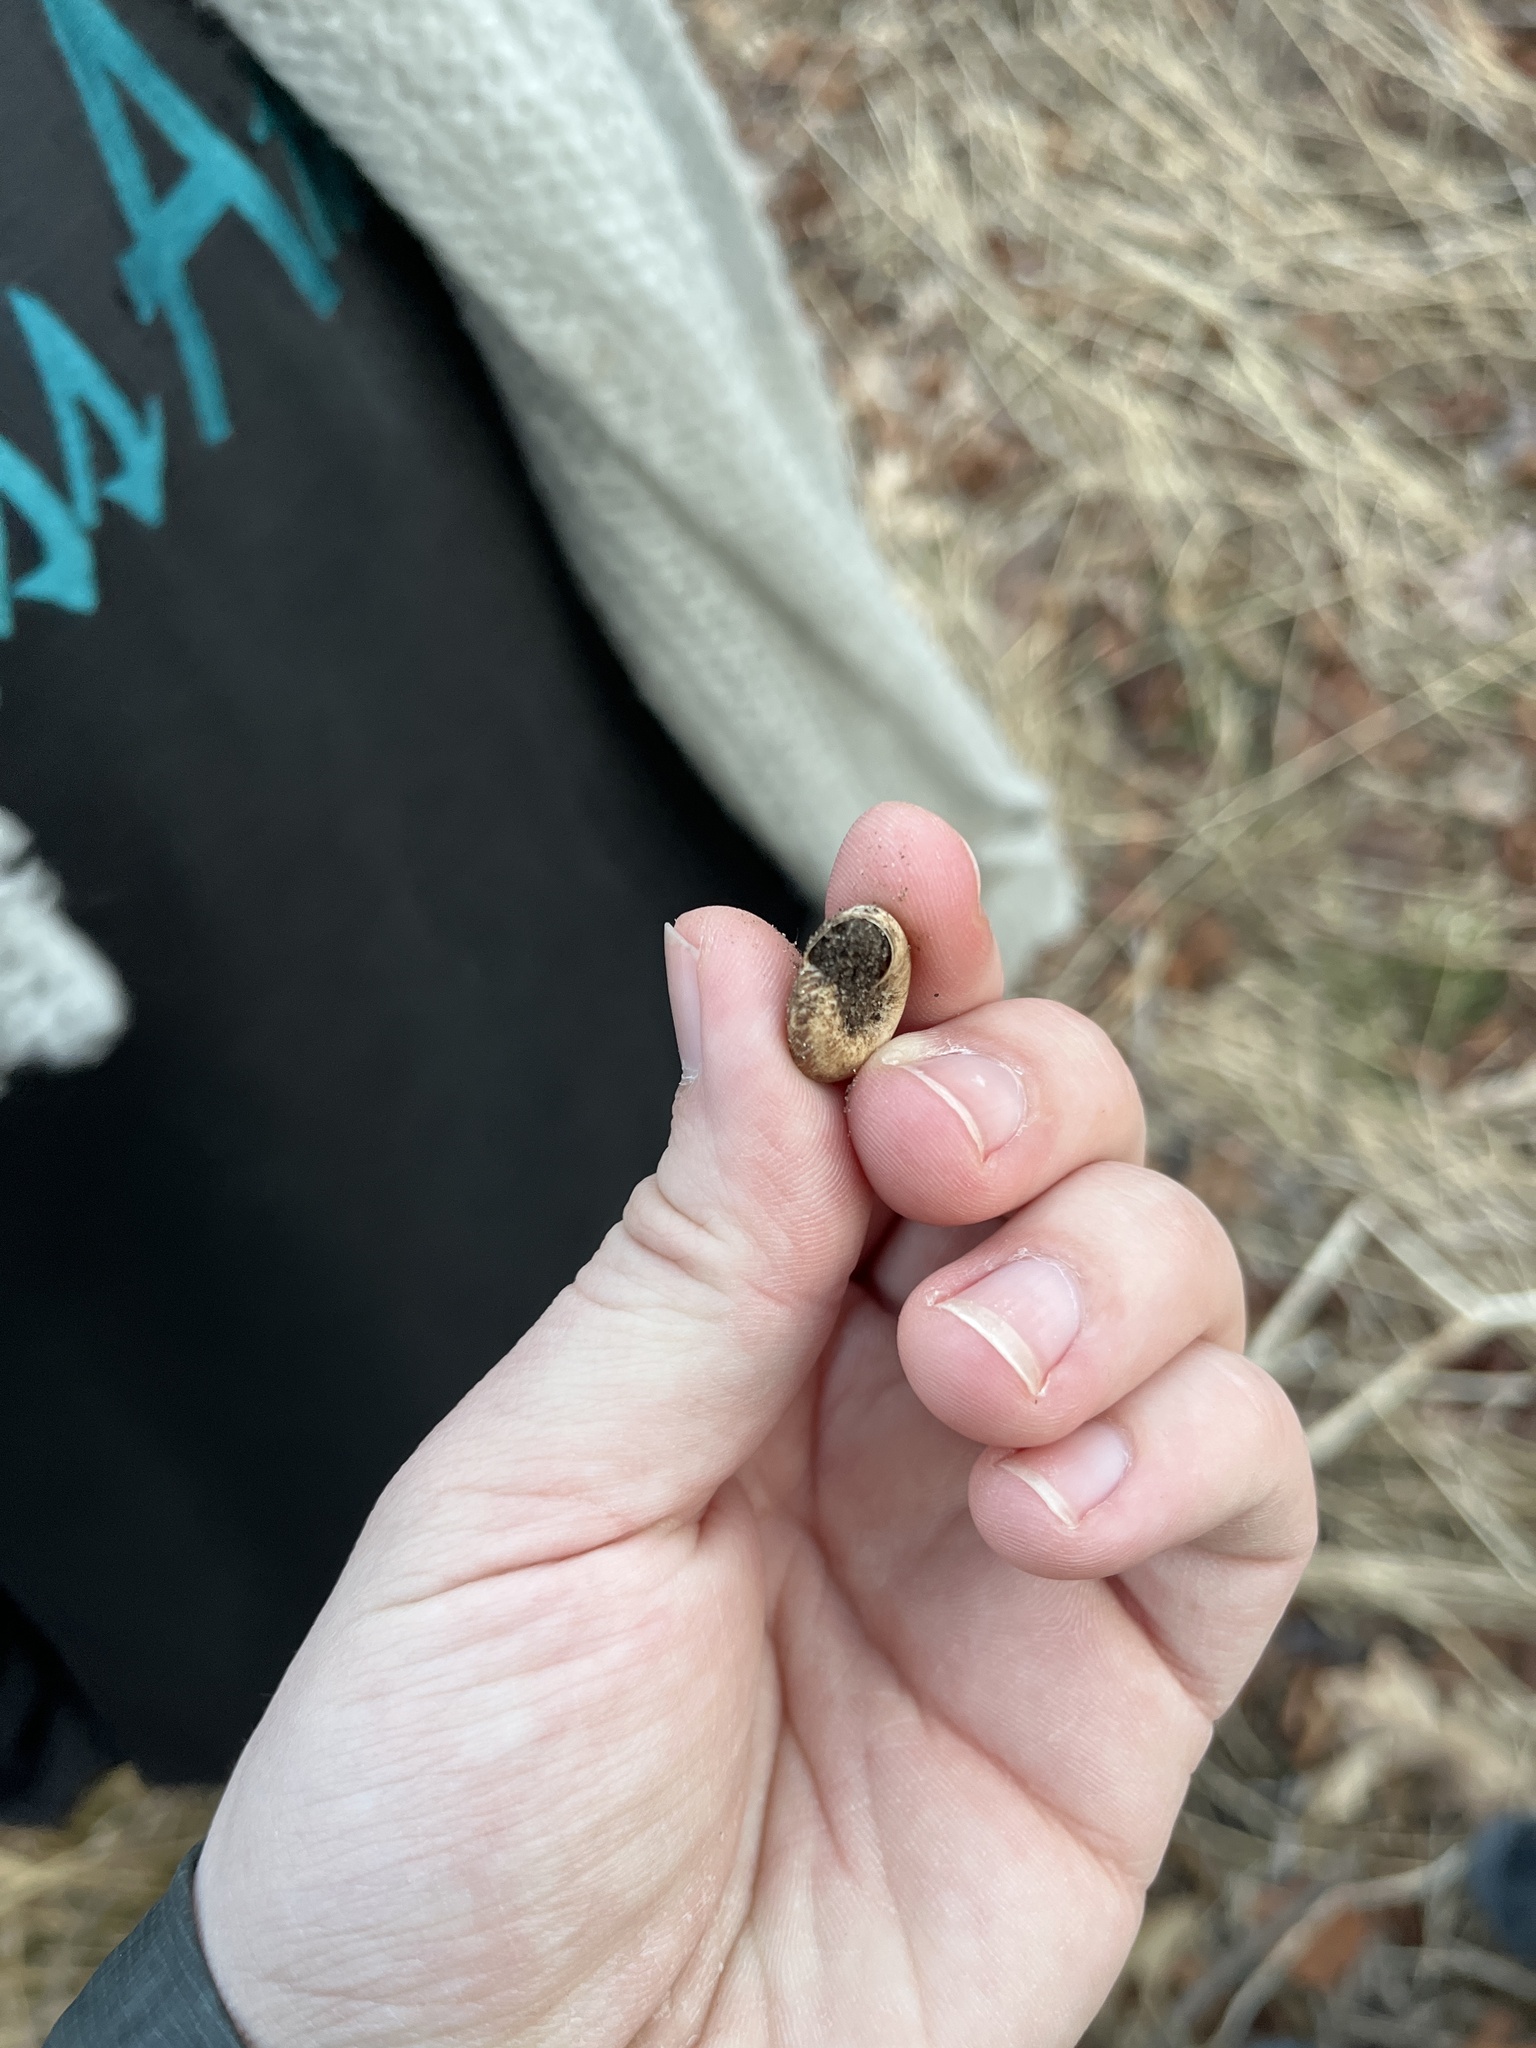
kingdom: Animalia
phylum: Mollusca
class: Gastropoda
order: Stylommatophora
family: Discidae
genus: Anguispira
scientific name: Anguispira alternata
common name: Flamed tigersnail
